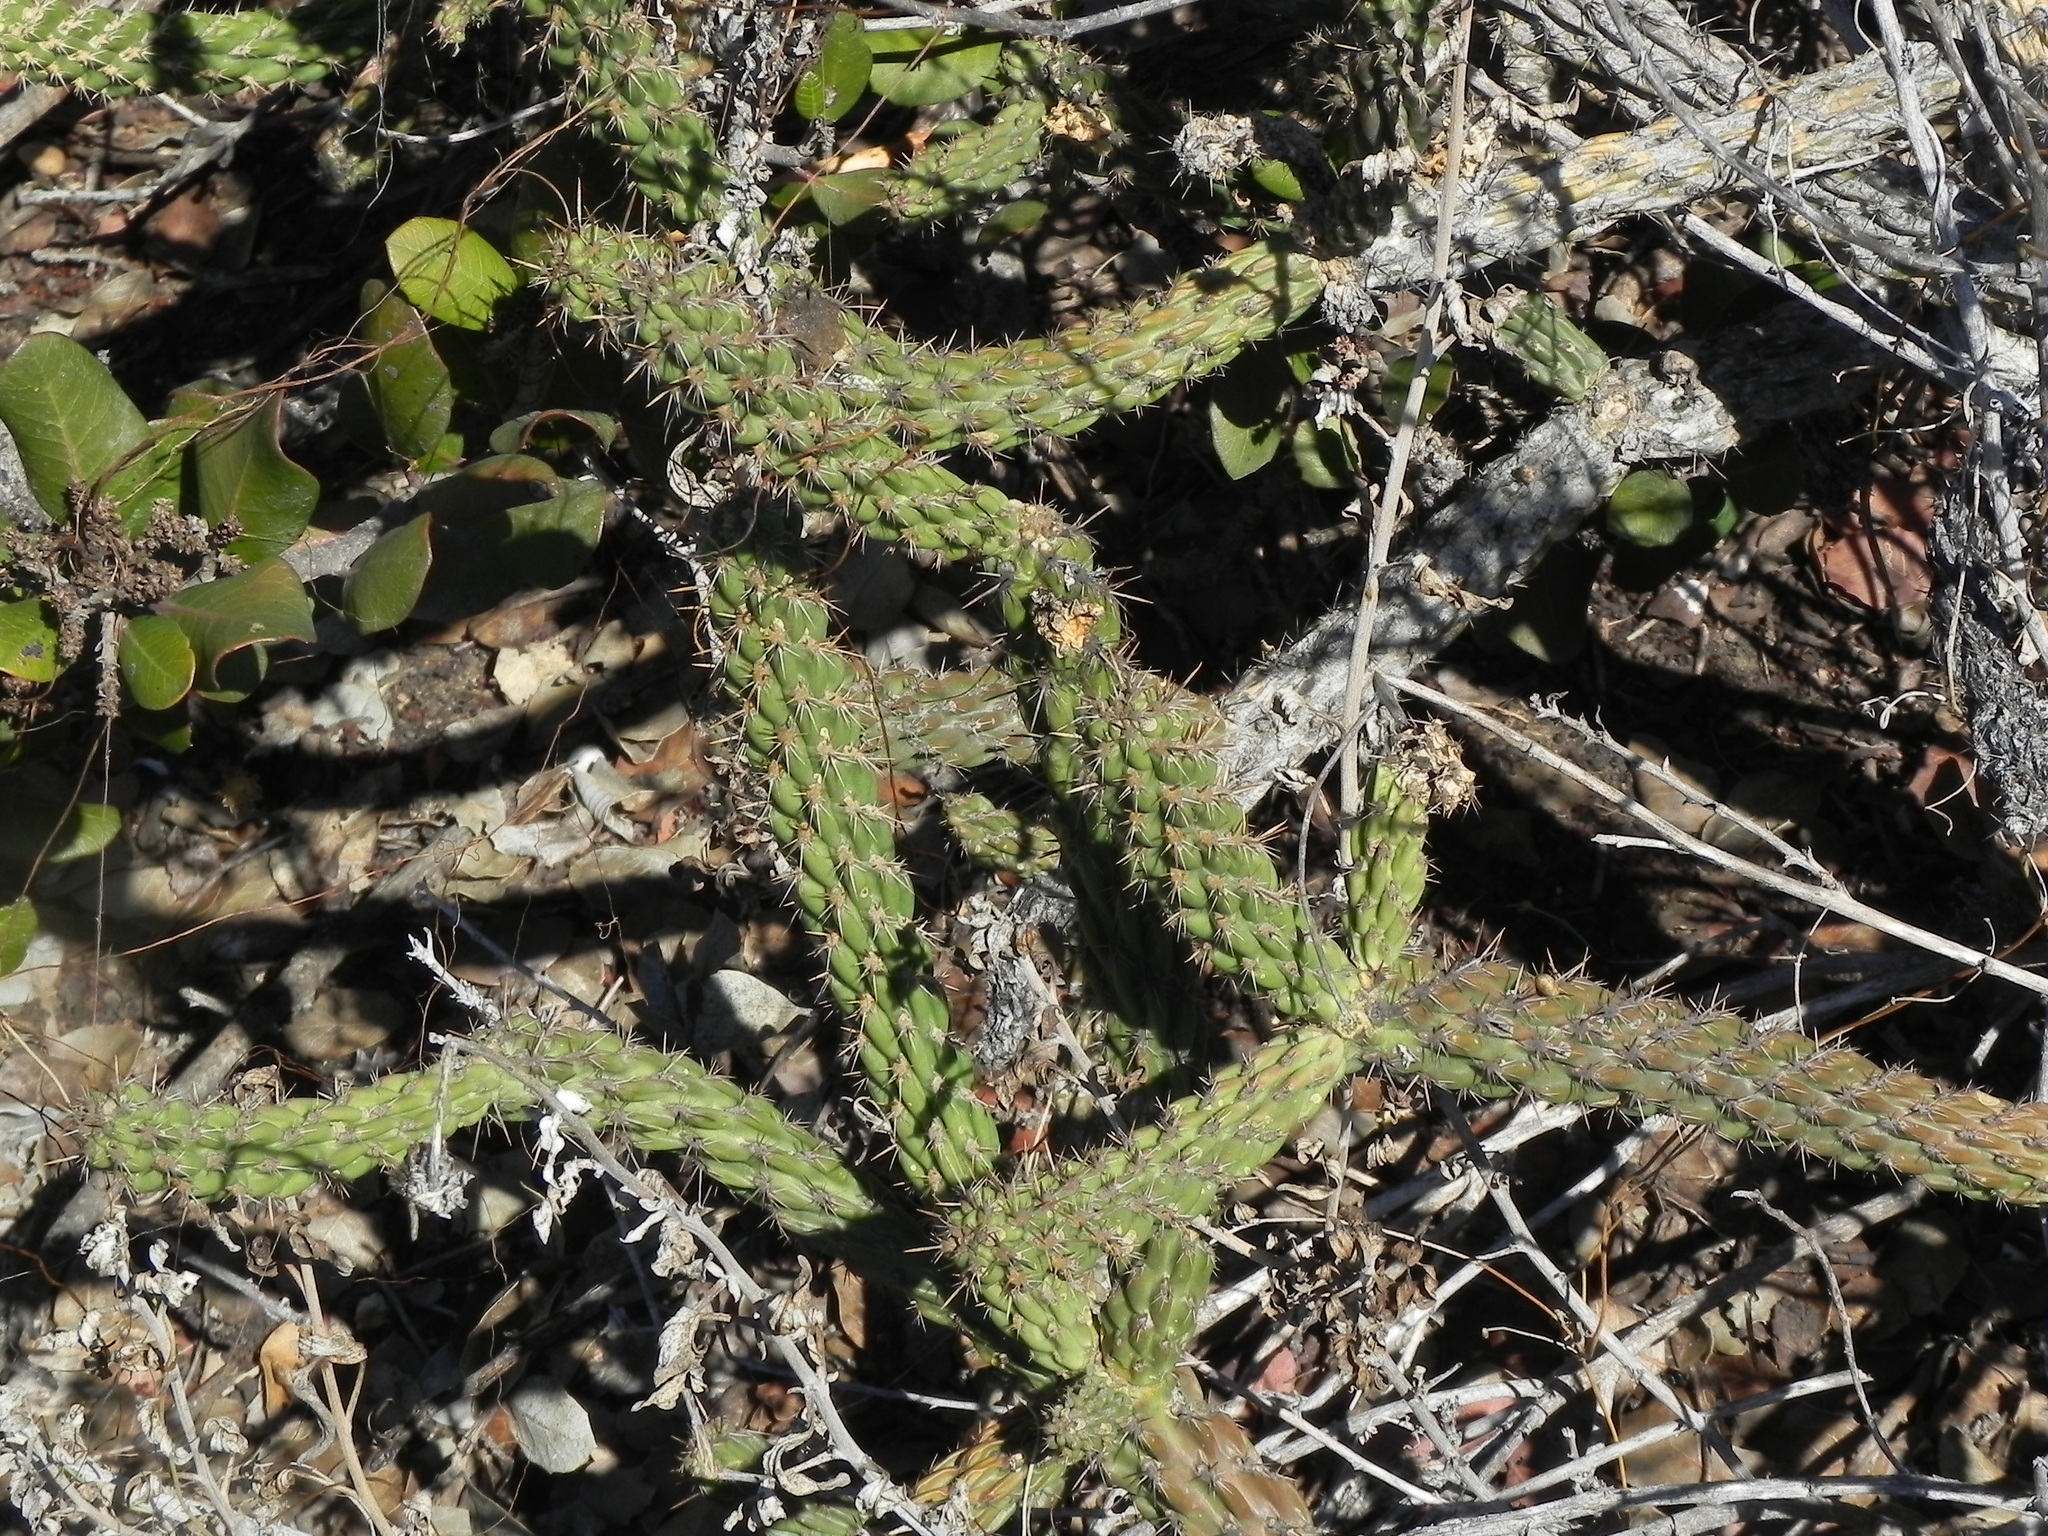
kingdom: Plantae
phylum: Tracheophyta
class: Magnoliopsida
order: Caryophyllales
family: Cactaceae
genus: Cylindropuntia
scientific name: Cylindropuntia californica
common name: Snake cholla
